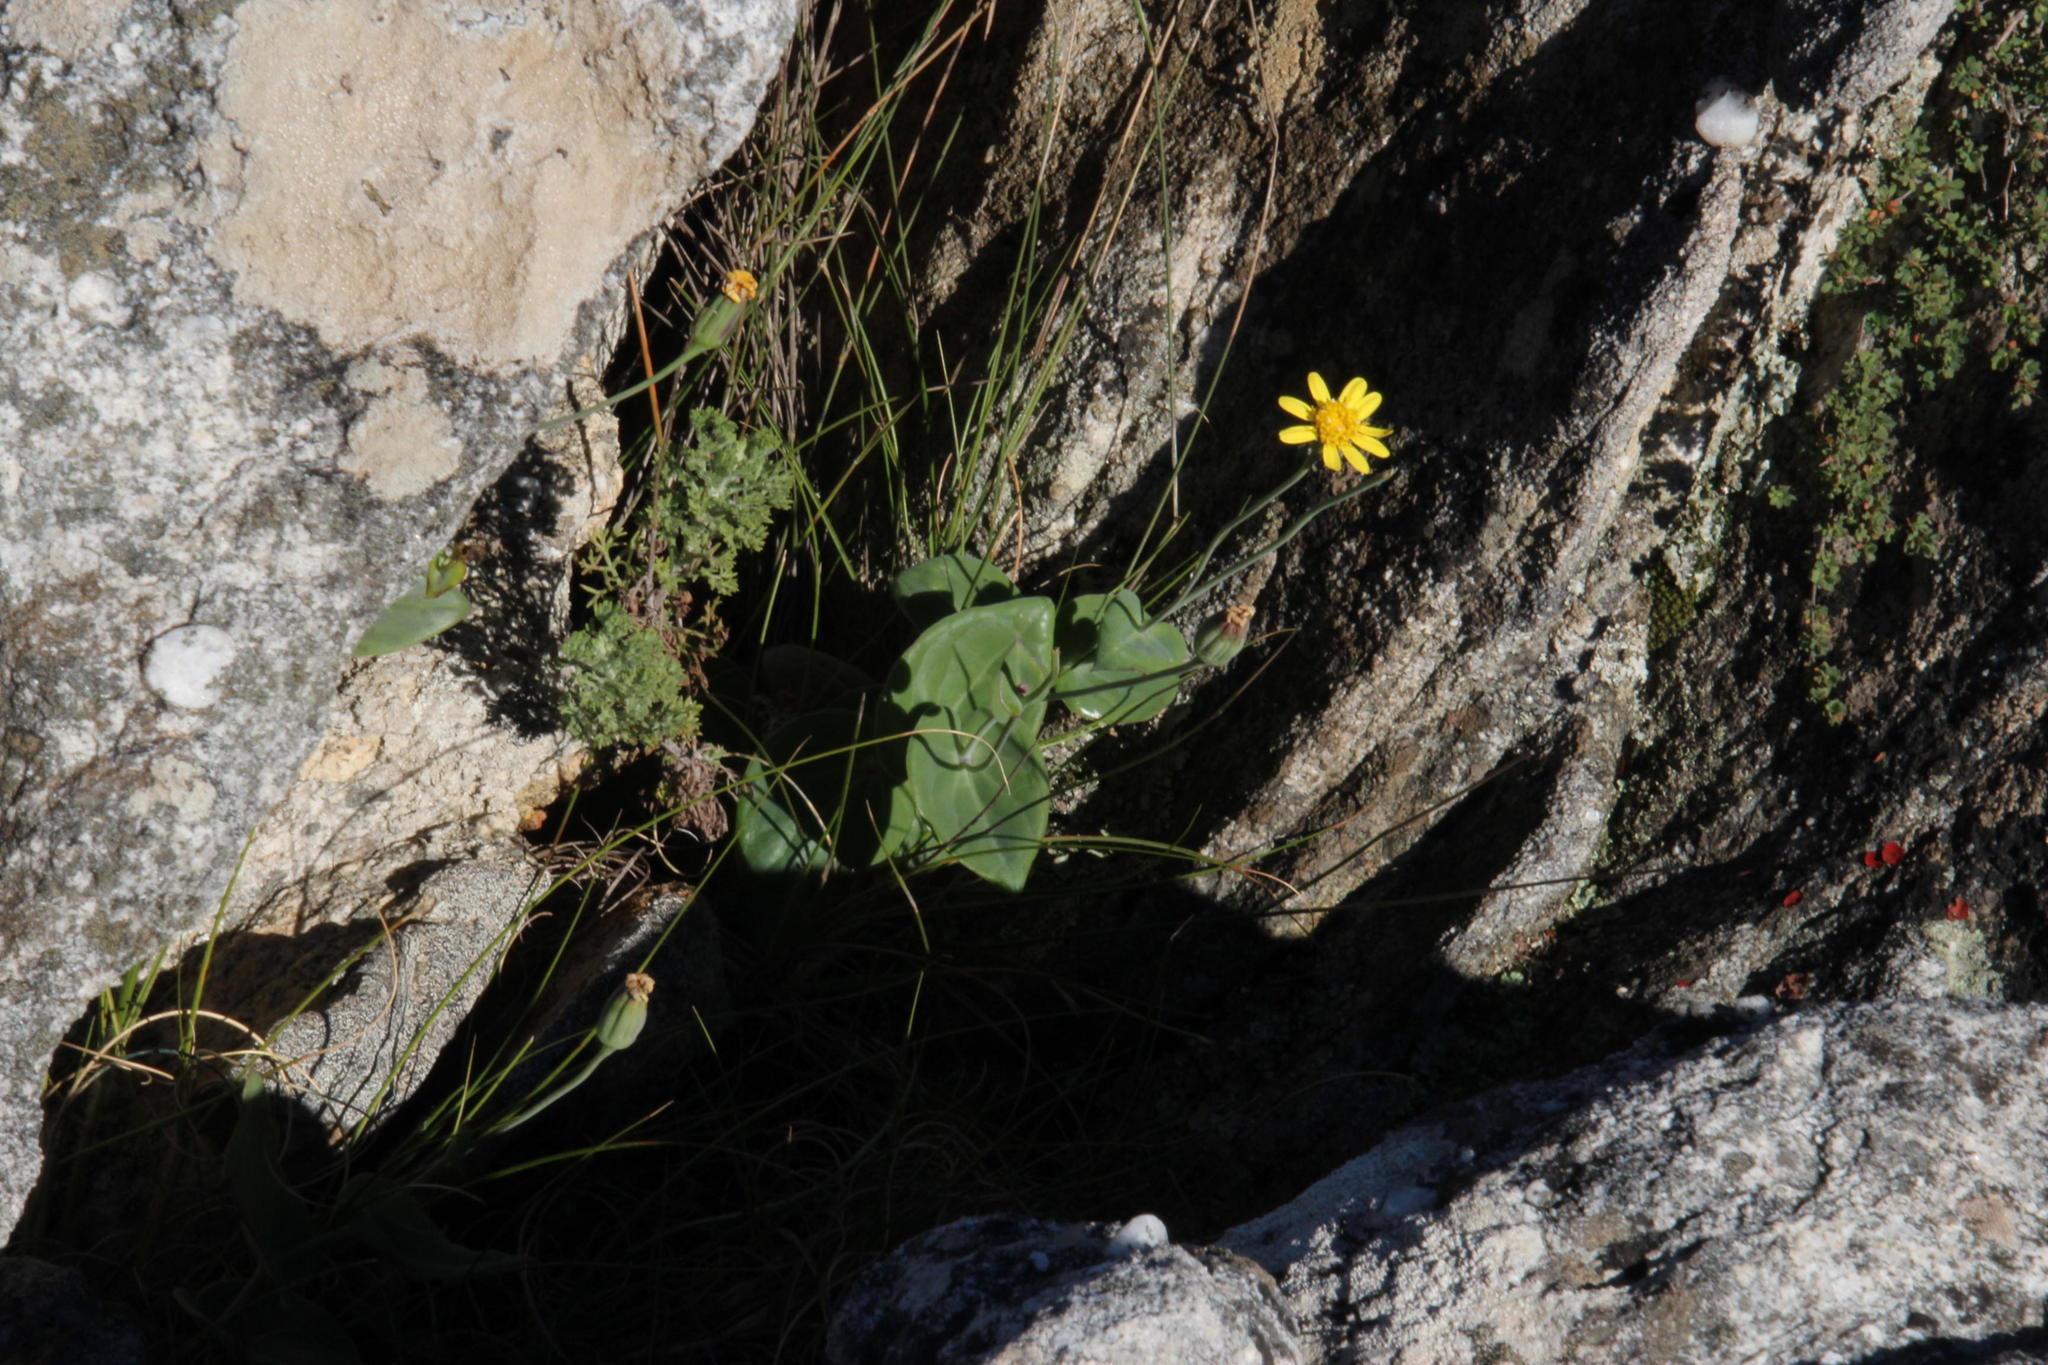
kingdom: Plantae
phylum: Tracheophyta
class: Magnoliopsida
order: Asterales
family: Asteraceae
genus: Othonna
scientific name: Othonna perfoliata
